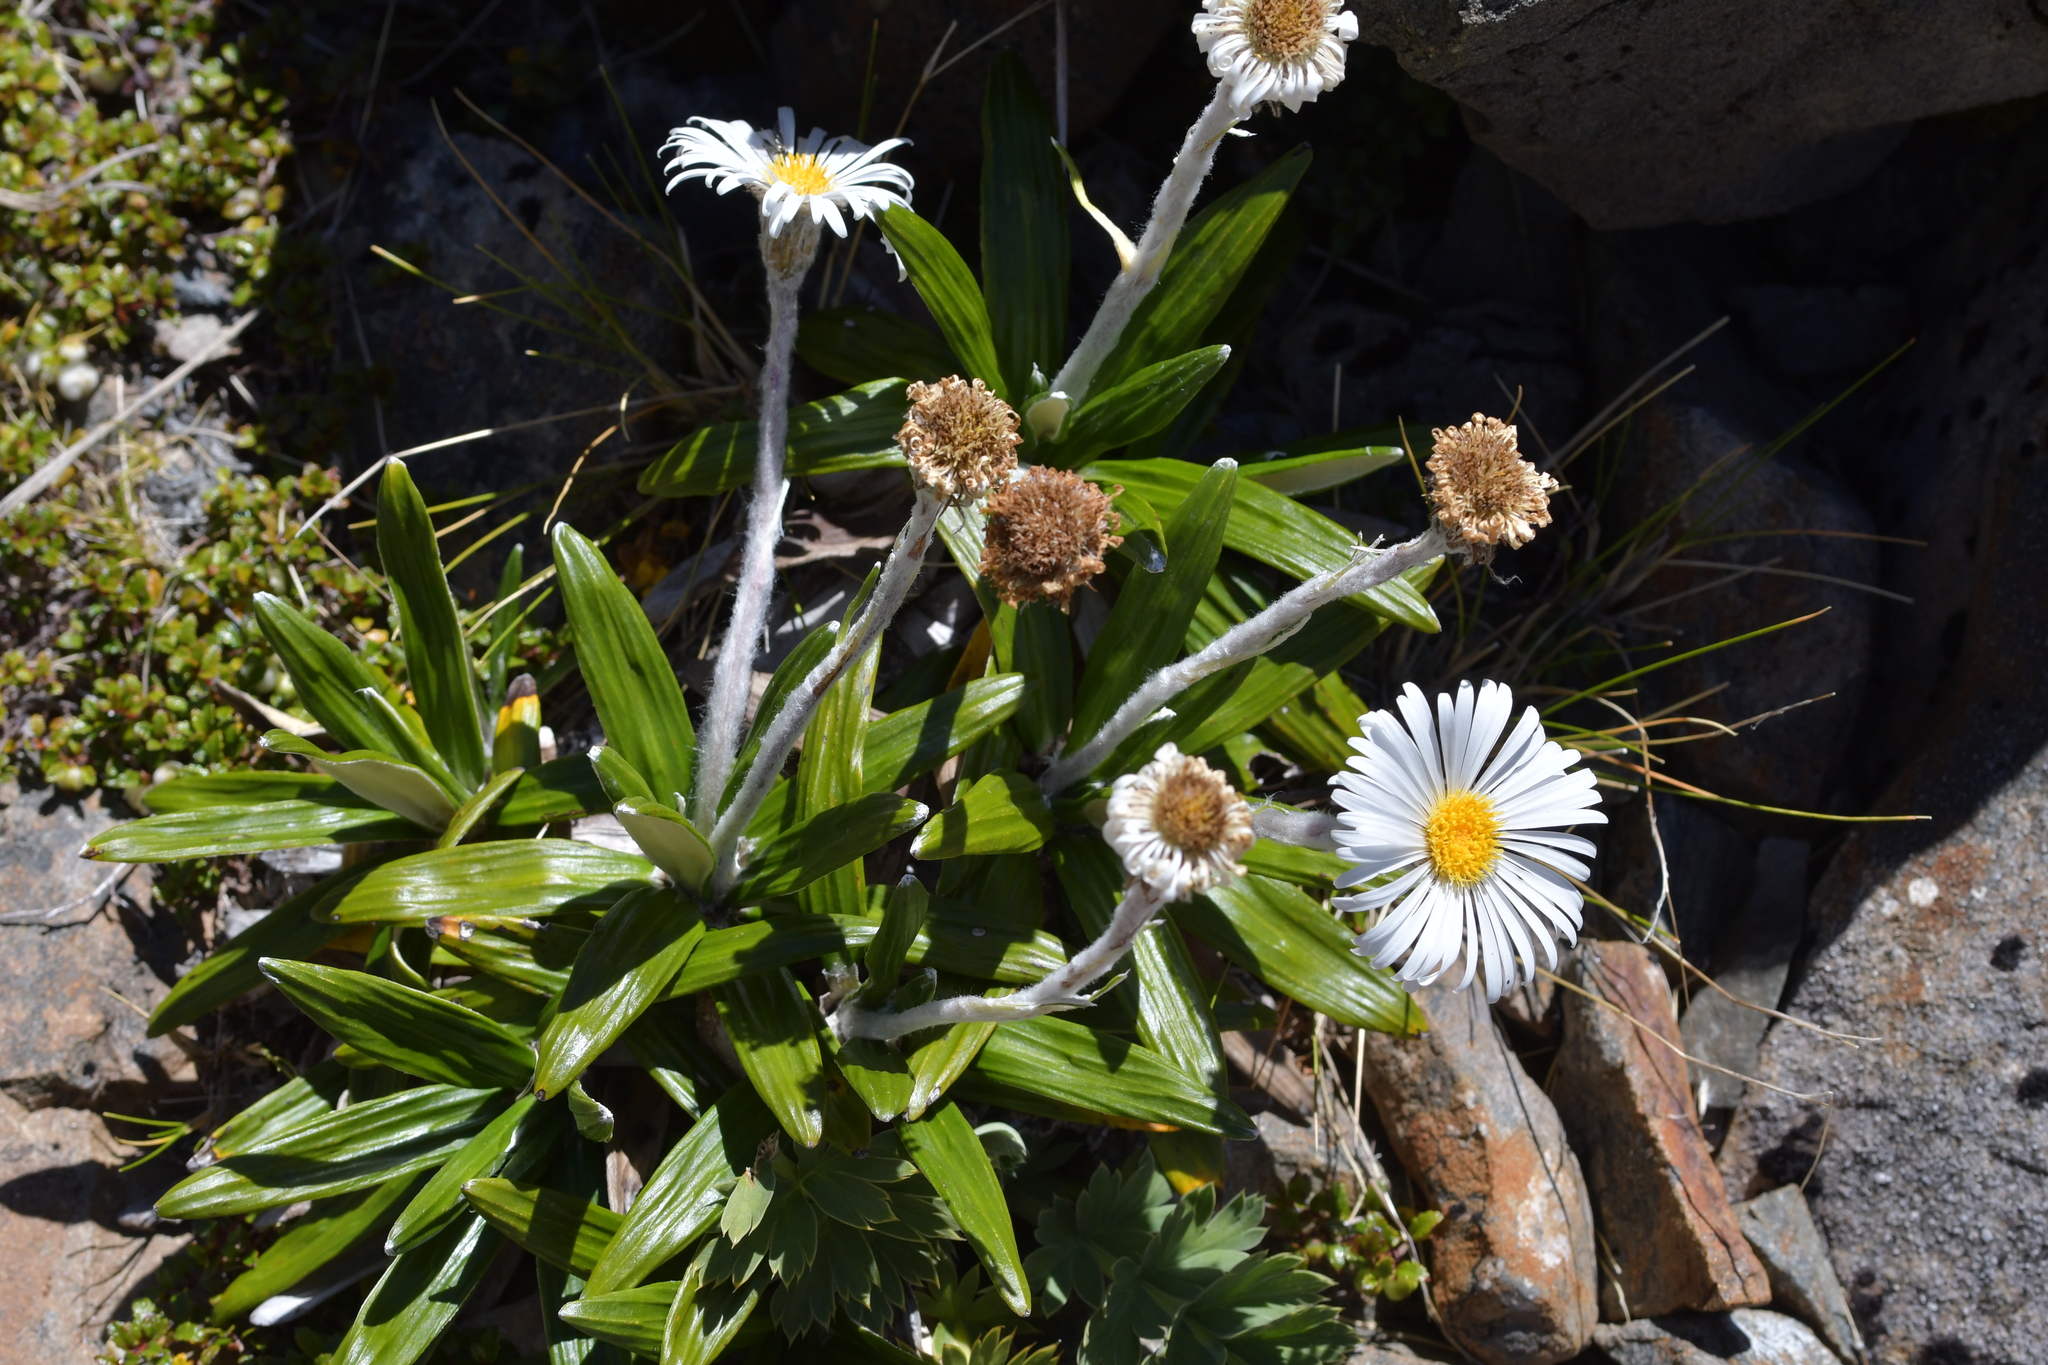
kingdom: Plantae
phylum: Tracheophyta
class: Magnoliopsida
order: Asterales
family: Asteraceae
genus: Celmisia
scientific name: Celmisia spectabilis
